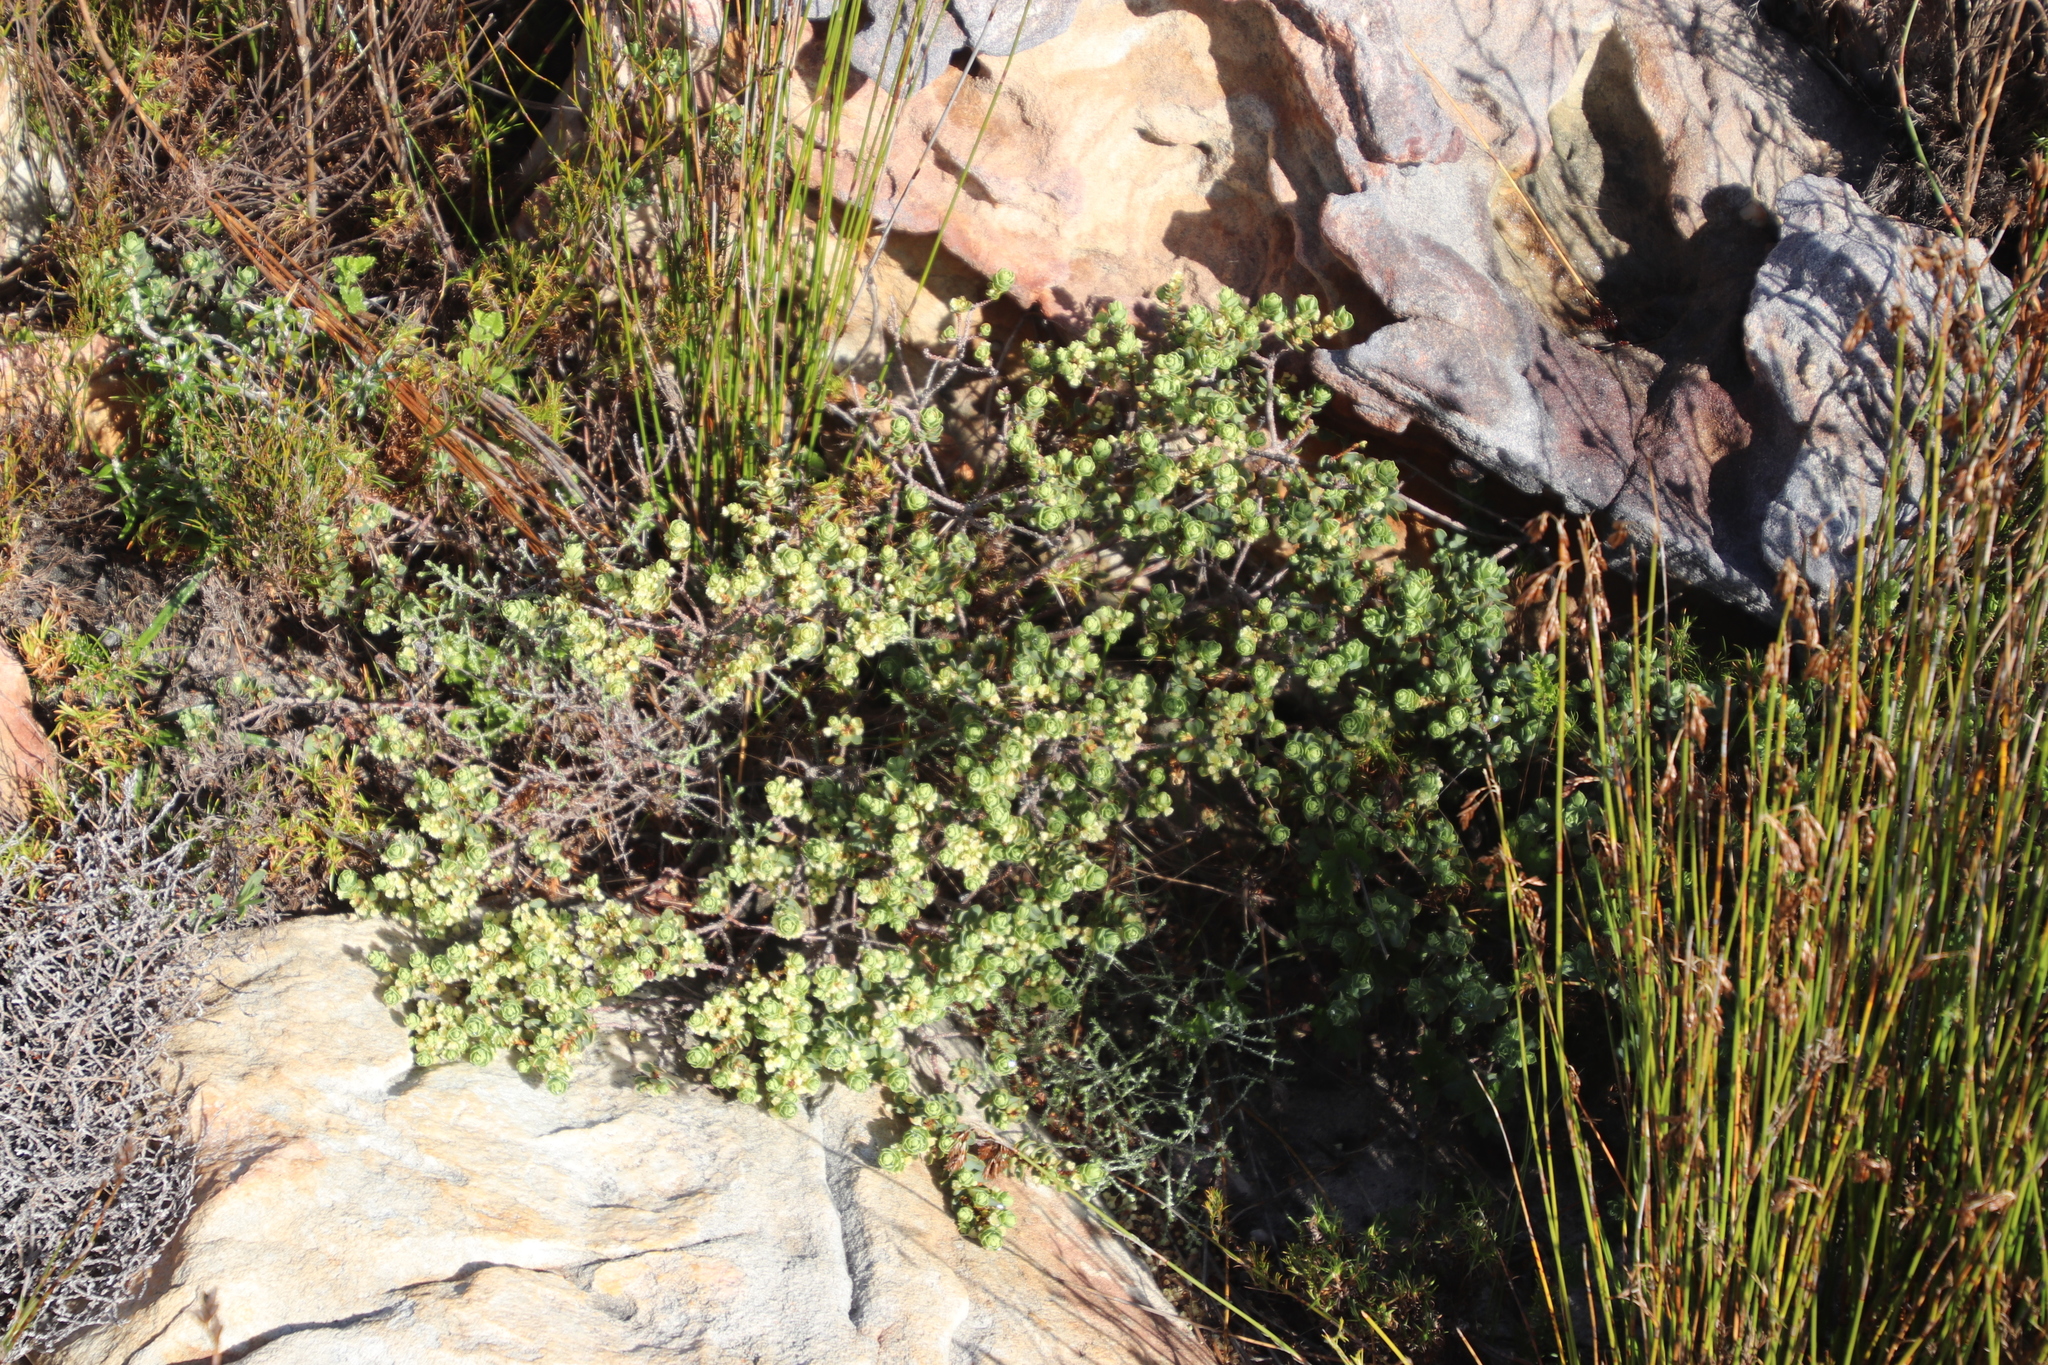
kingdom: Plantae
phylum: Tracheophyta
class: Magnoliopsida
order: Malpighiales
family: Peraceae
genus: Clutia
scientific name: Clutia alaternoides
